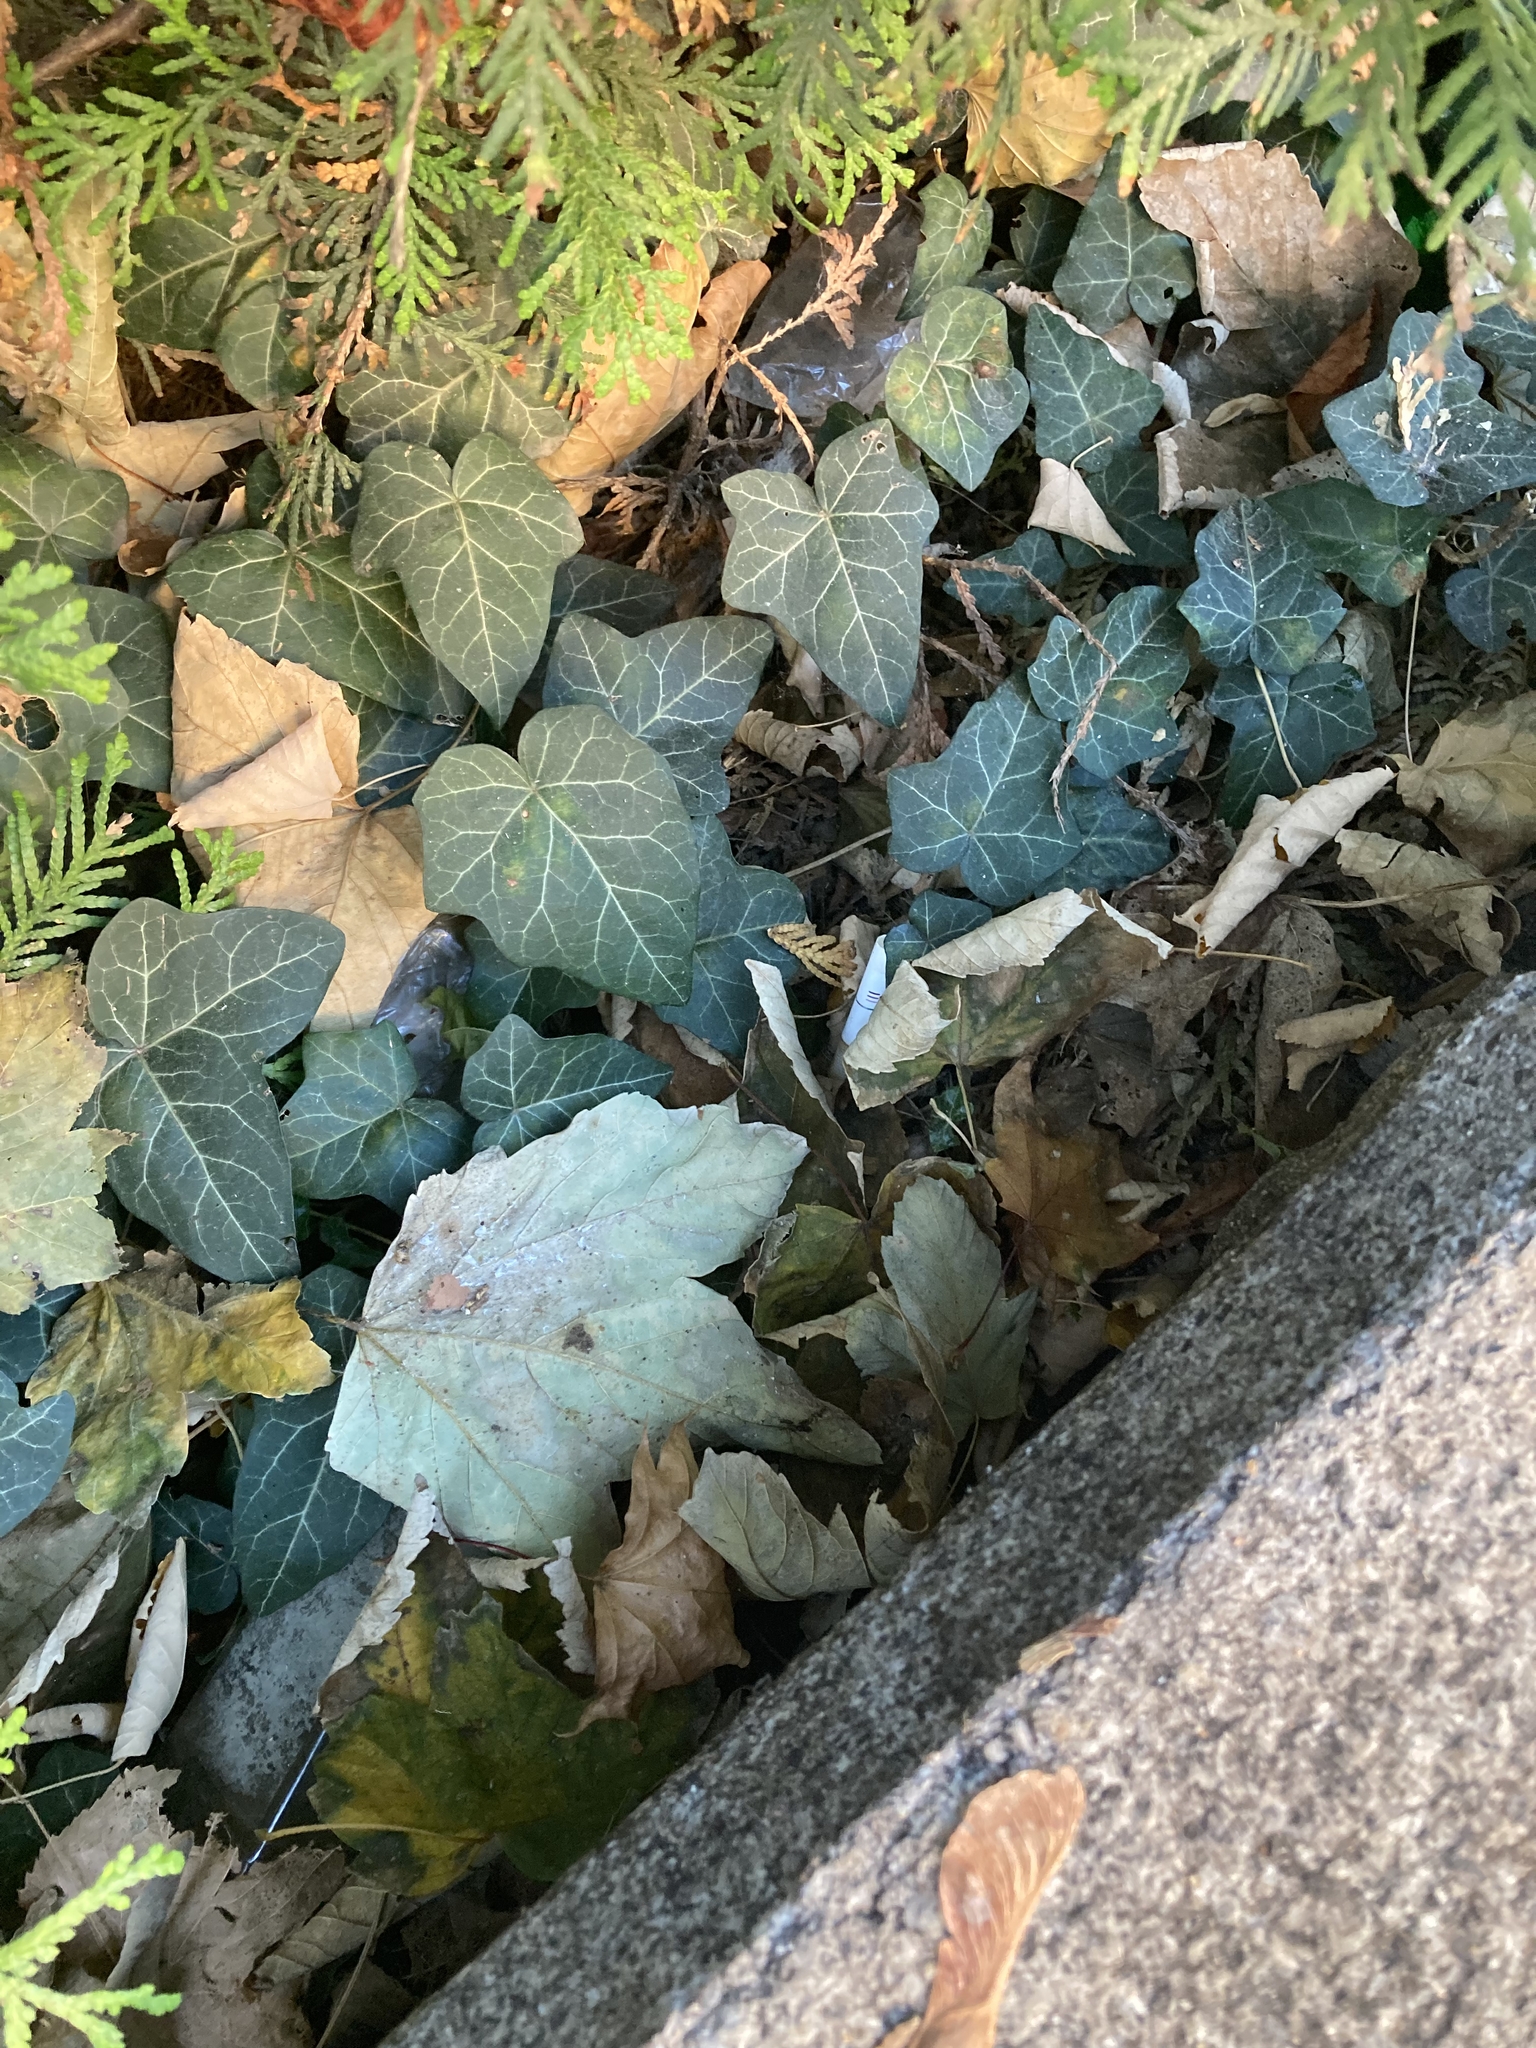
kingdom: Plantae
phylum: Tracheophyta
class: Magnoliopsida
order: Apiales
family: Araliaceae
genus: Hedera
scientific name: Hedera helix
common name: Ivy
